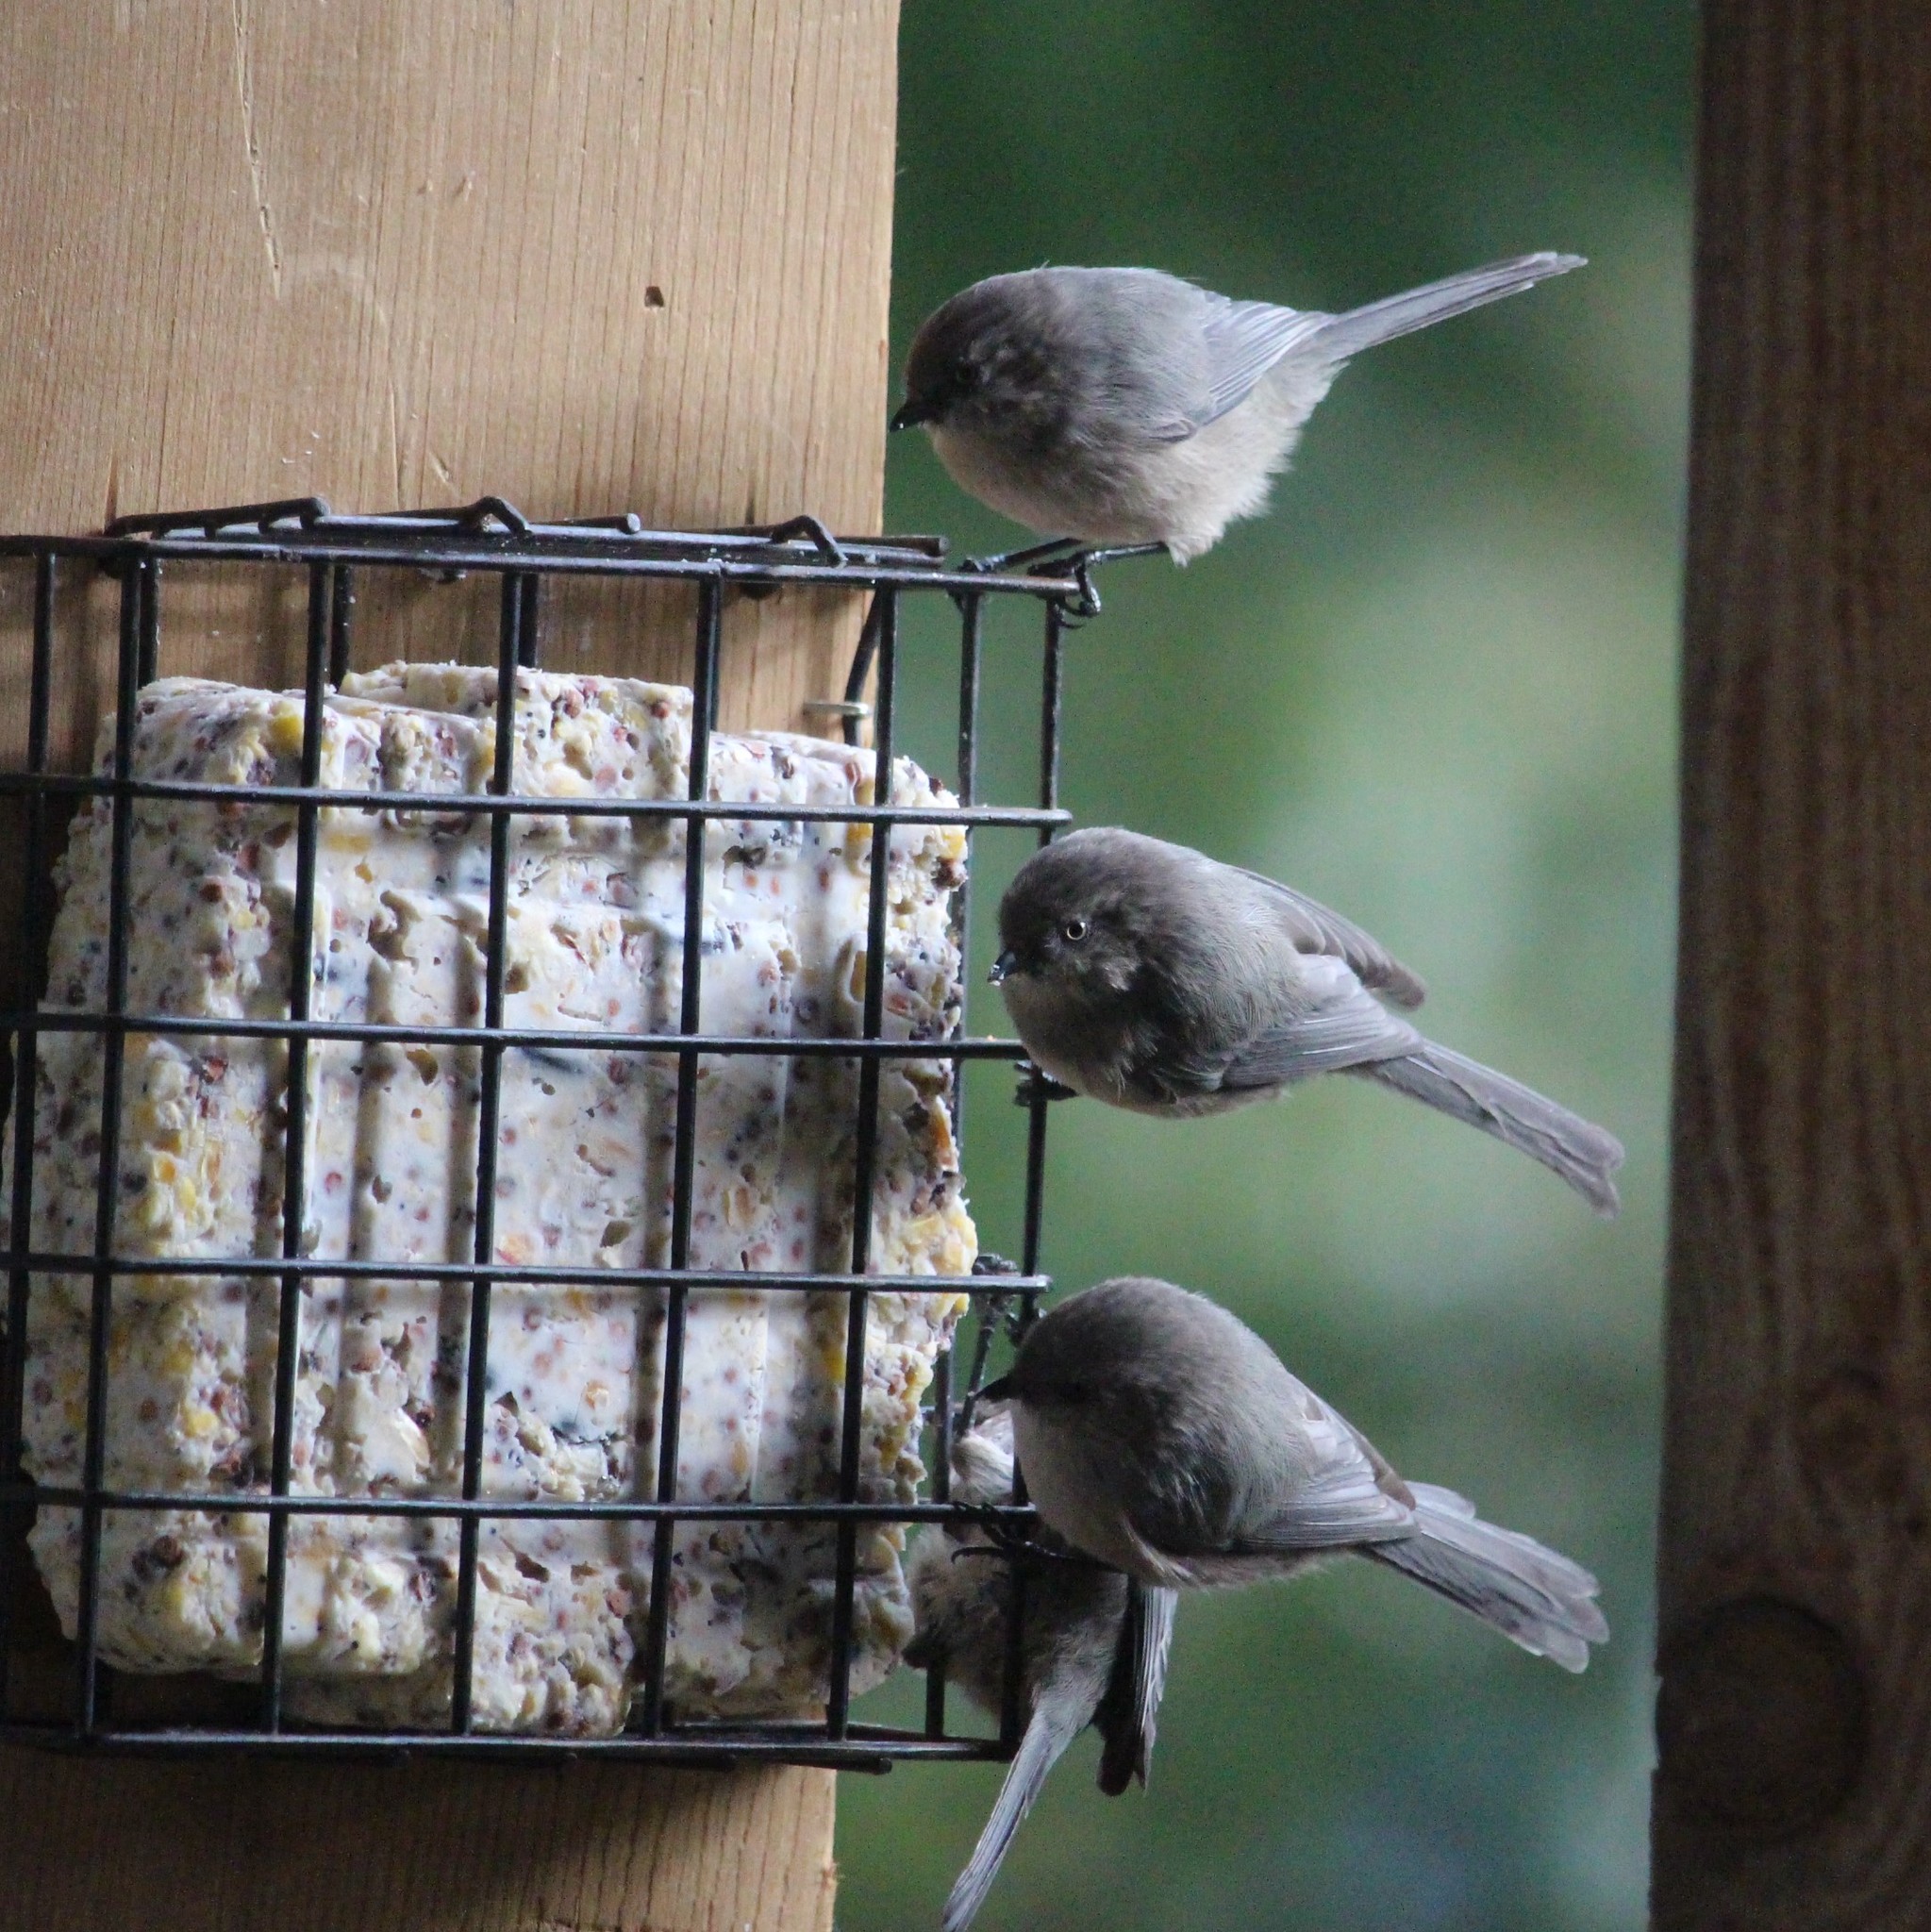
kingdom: Animalia
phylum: Chordata
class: Aves
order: Passeriformes
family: Aegithalidae
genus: Psaltriparus
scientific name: Psaltriparus minimus
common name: American bushtit
